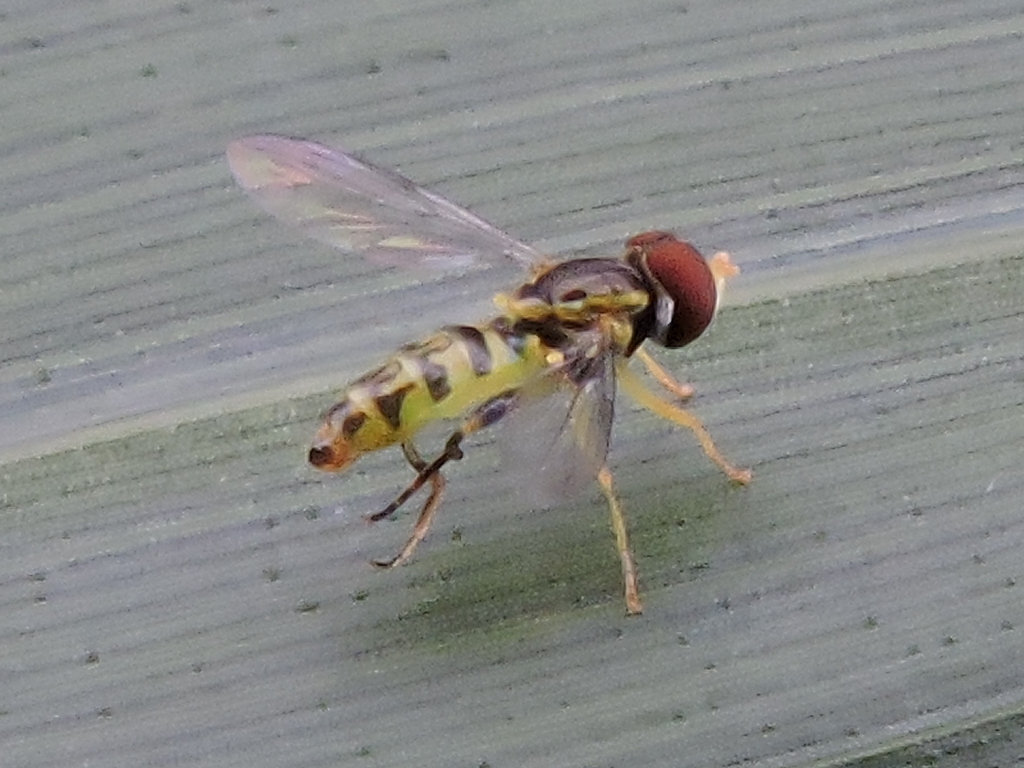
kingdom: Animalia
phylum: Arthropoda
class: Insecta
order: Diptera
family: Syrphidae
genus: Toxomerus
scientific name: Toxomerus geminatus
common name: Eastern calligrapher
